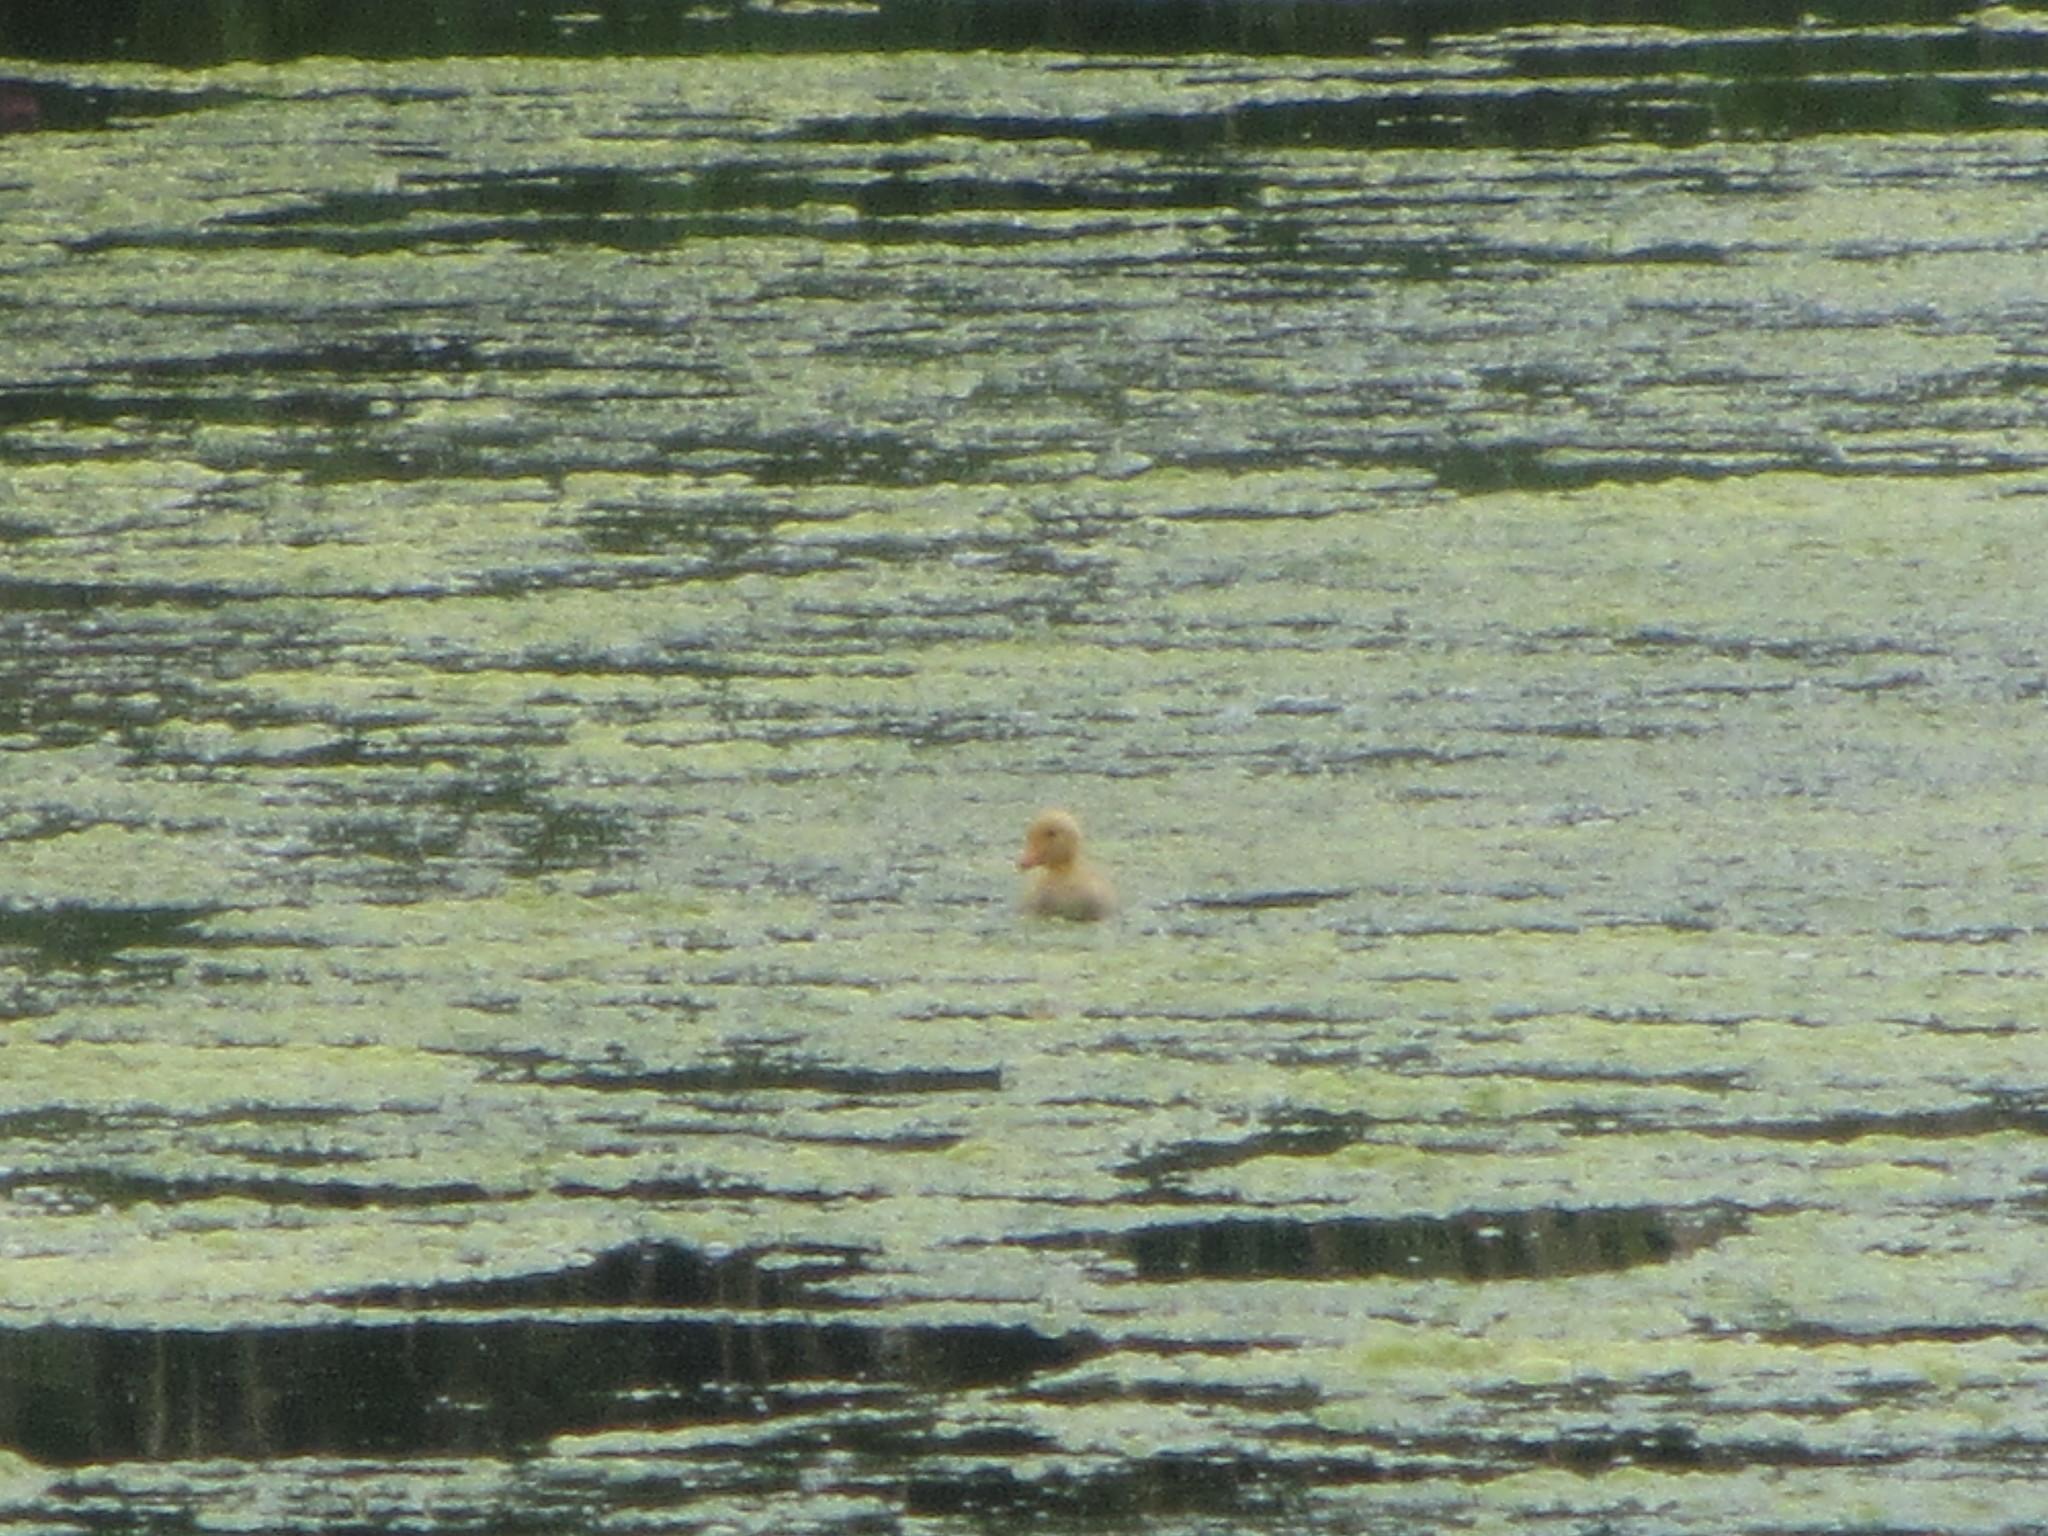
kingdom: Animalia
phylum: Chordata
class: Aves
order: Anseriformes
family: Anatidae
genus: Anas
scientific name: Anas platyrhynchos
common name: Mallard
